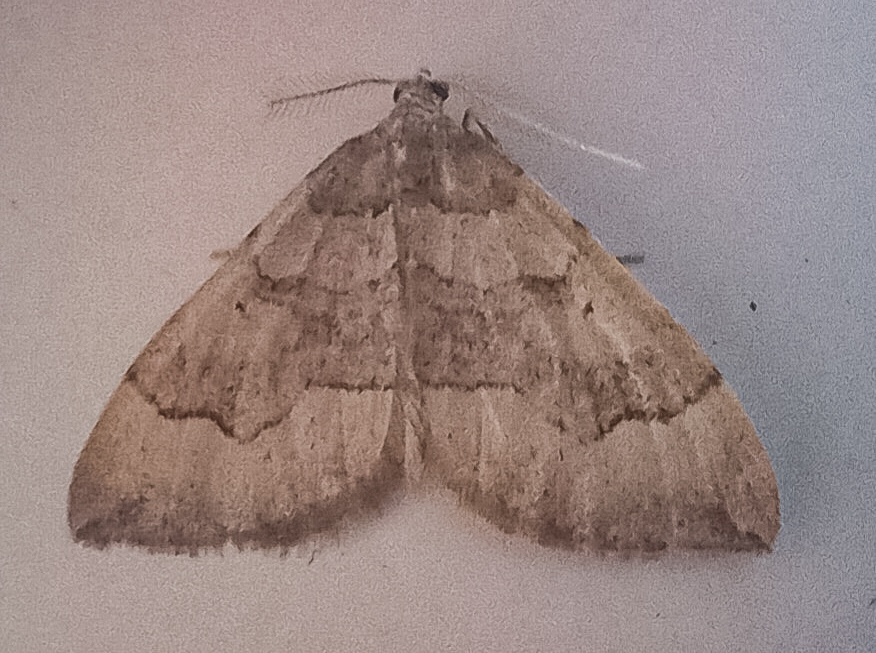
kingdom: Animalia
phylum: Arthropoda
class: Insecta
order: Lepidoptera
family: Geometridae
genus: Epyaxa
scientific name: Epyaxa rosearia
